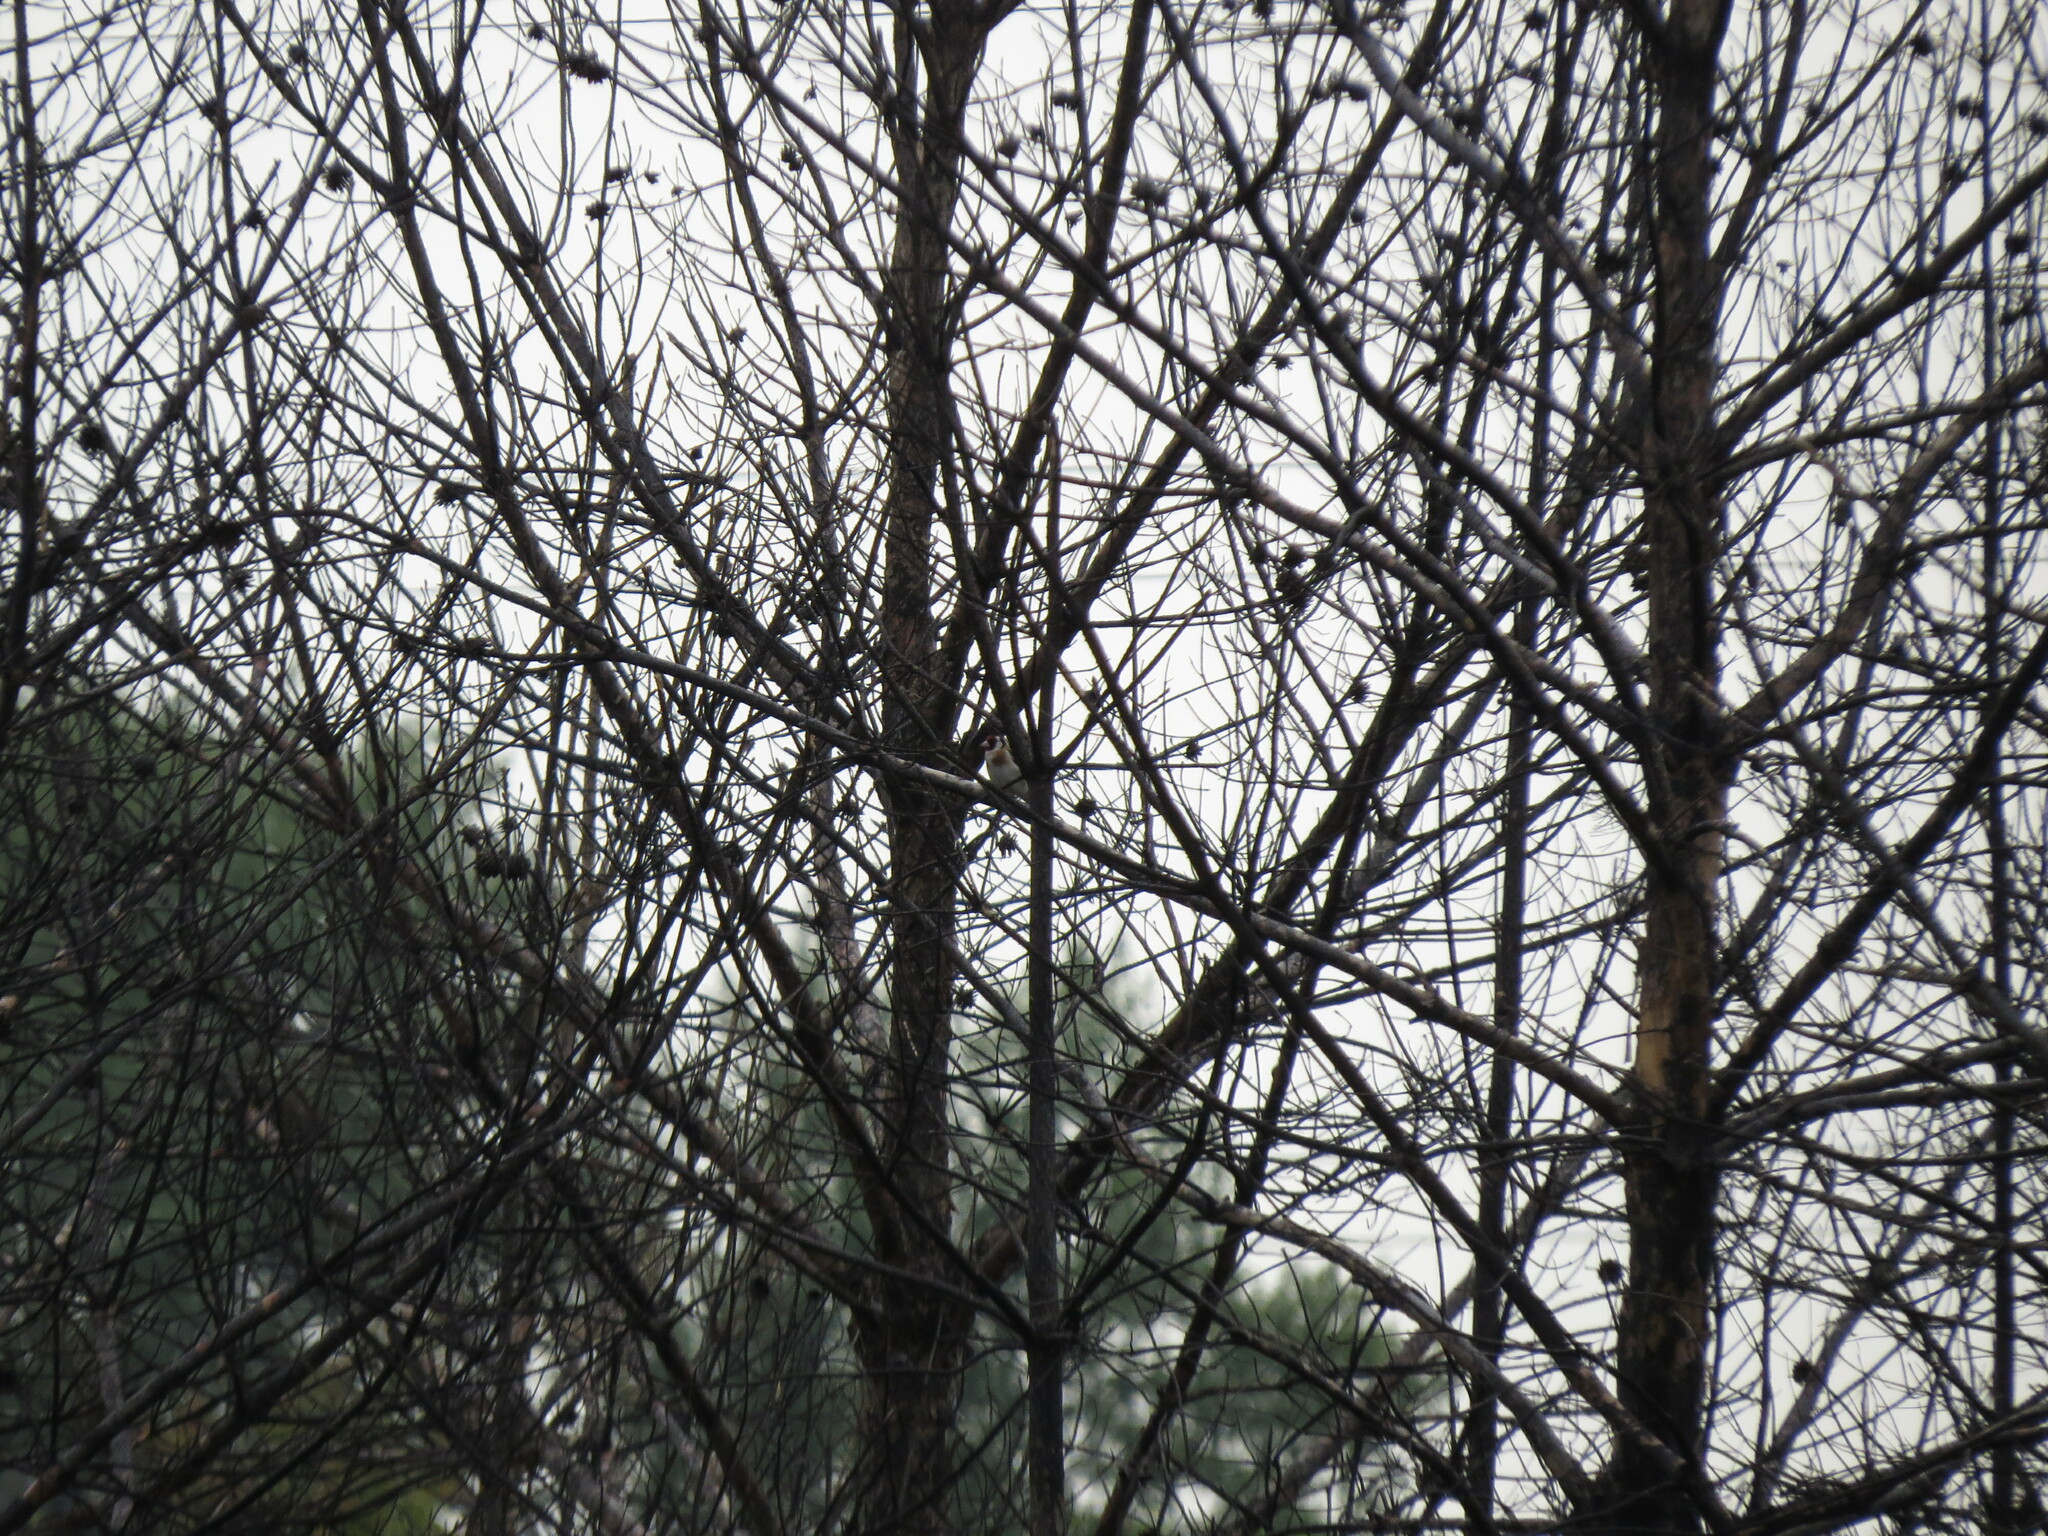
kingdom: Animalia
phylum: Chordata
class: Aves
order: Passeriformes
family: Fringillidae
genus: Carduelis
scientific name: Carduelis carduelis
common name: European goldfinch
